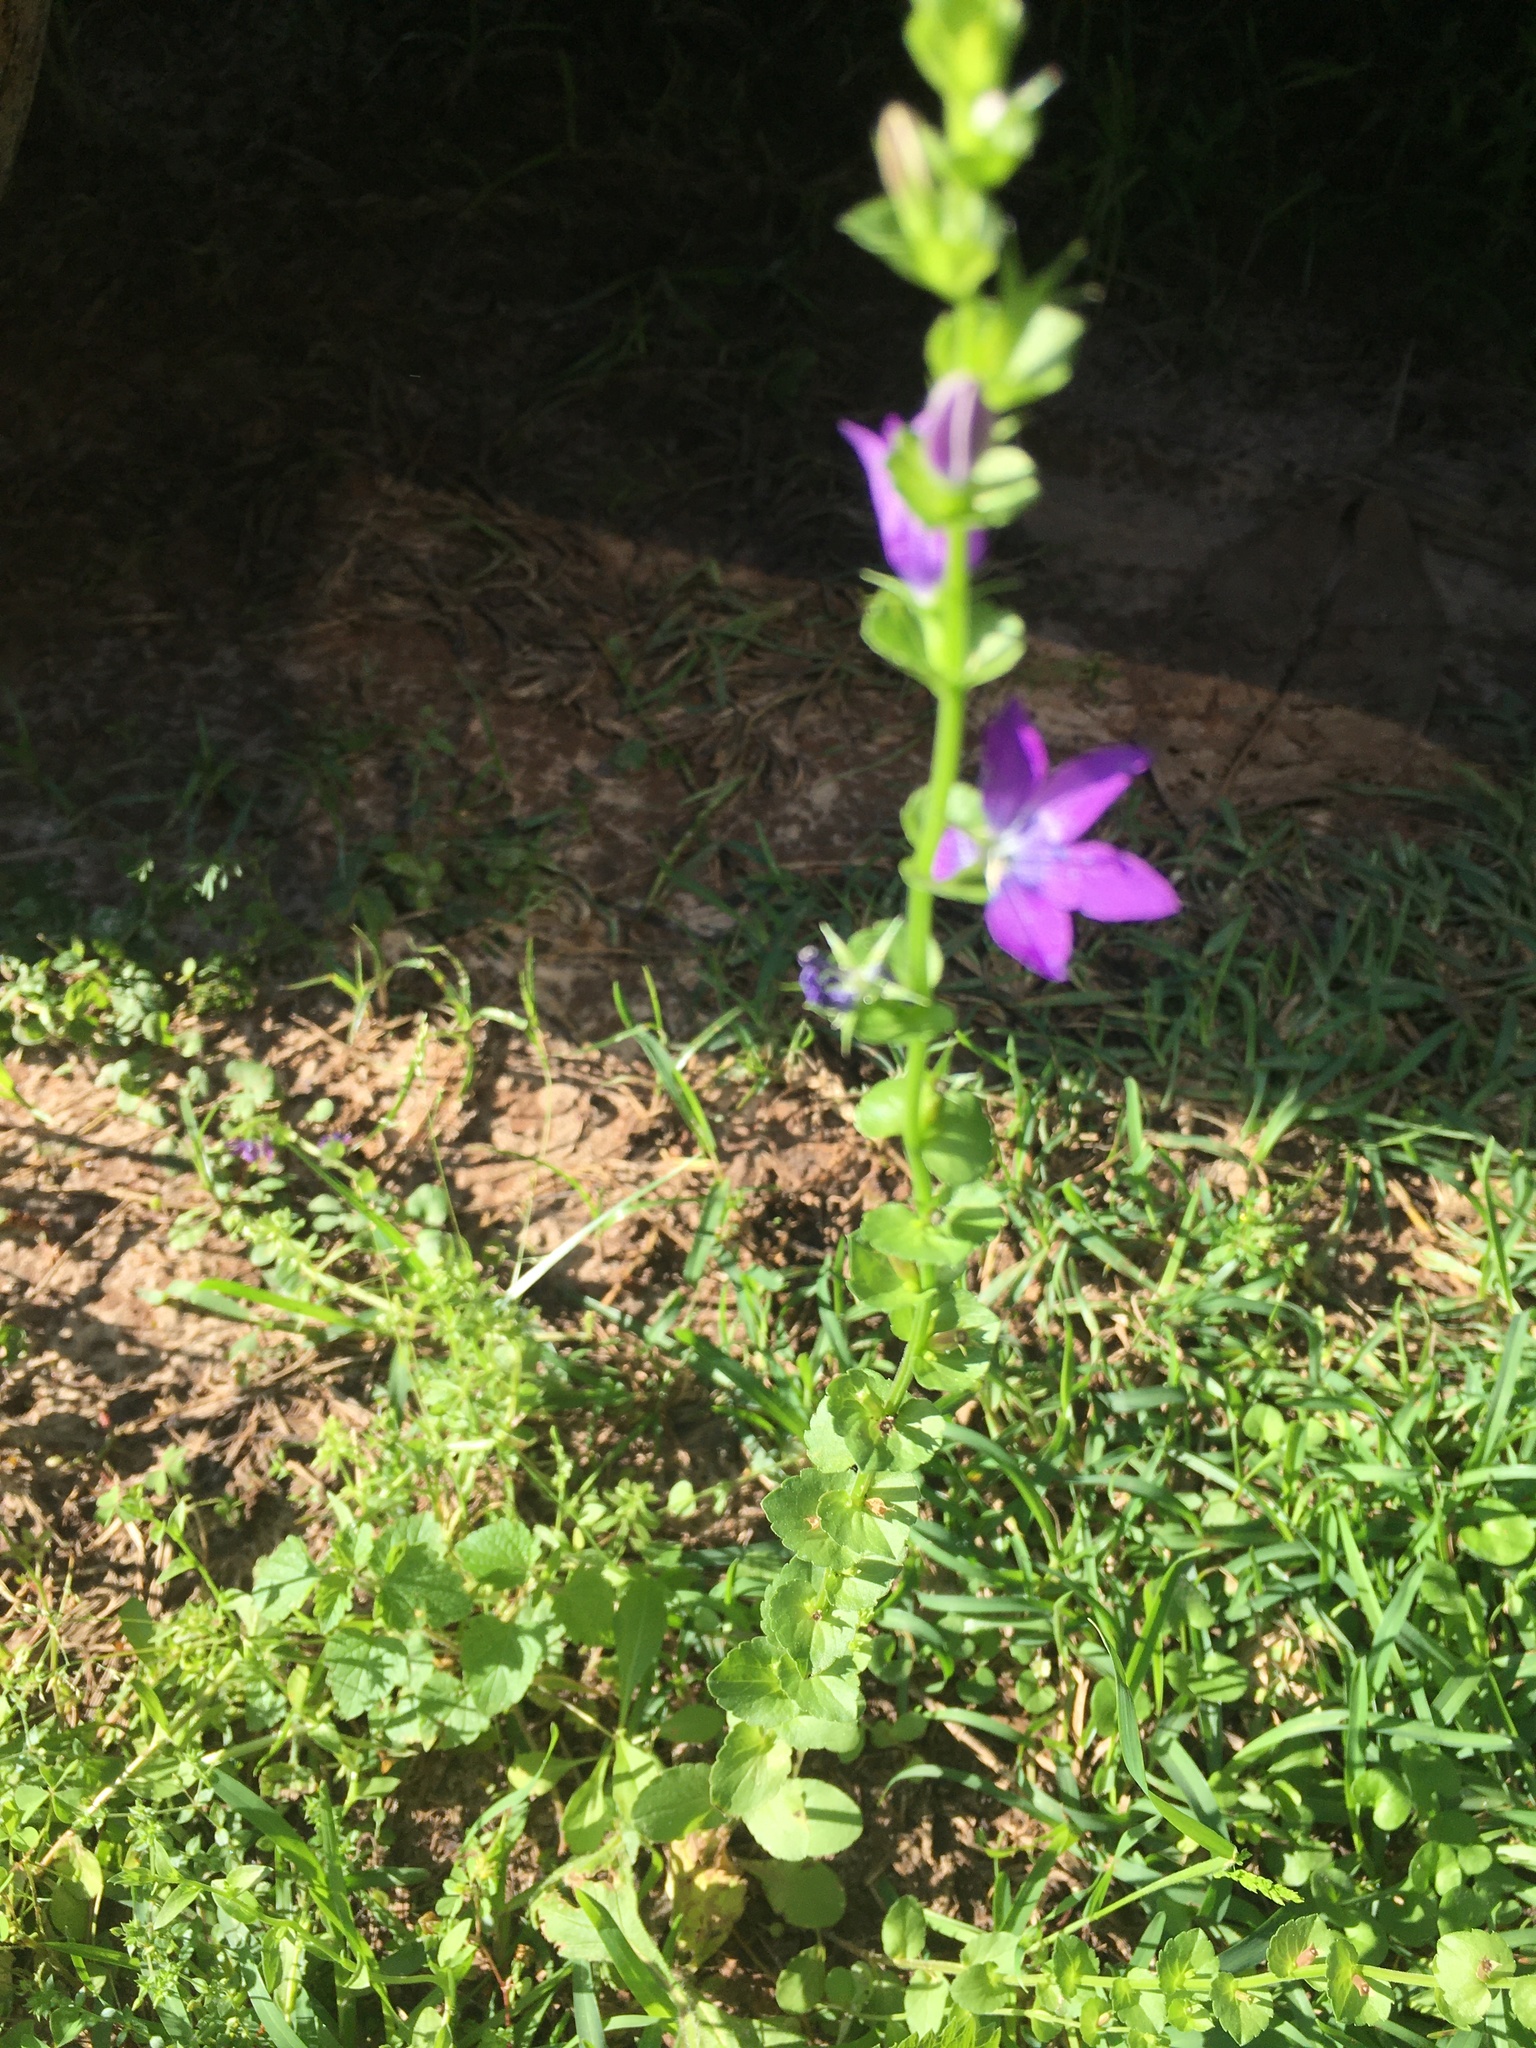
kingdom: Plantae
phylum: Tracheophyta
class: Magnoliopsida
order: Asterales
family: Campanulaceae
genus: Triodanis
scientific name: Triodanis perfoliata
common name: Clasping venus' looking-glass
